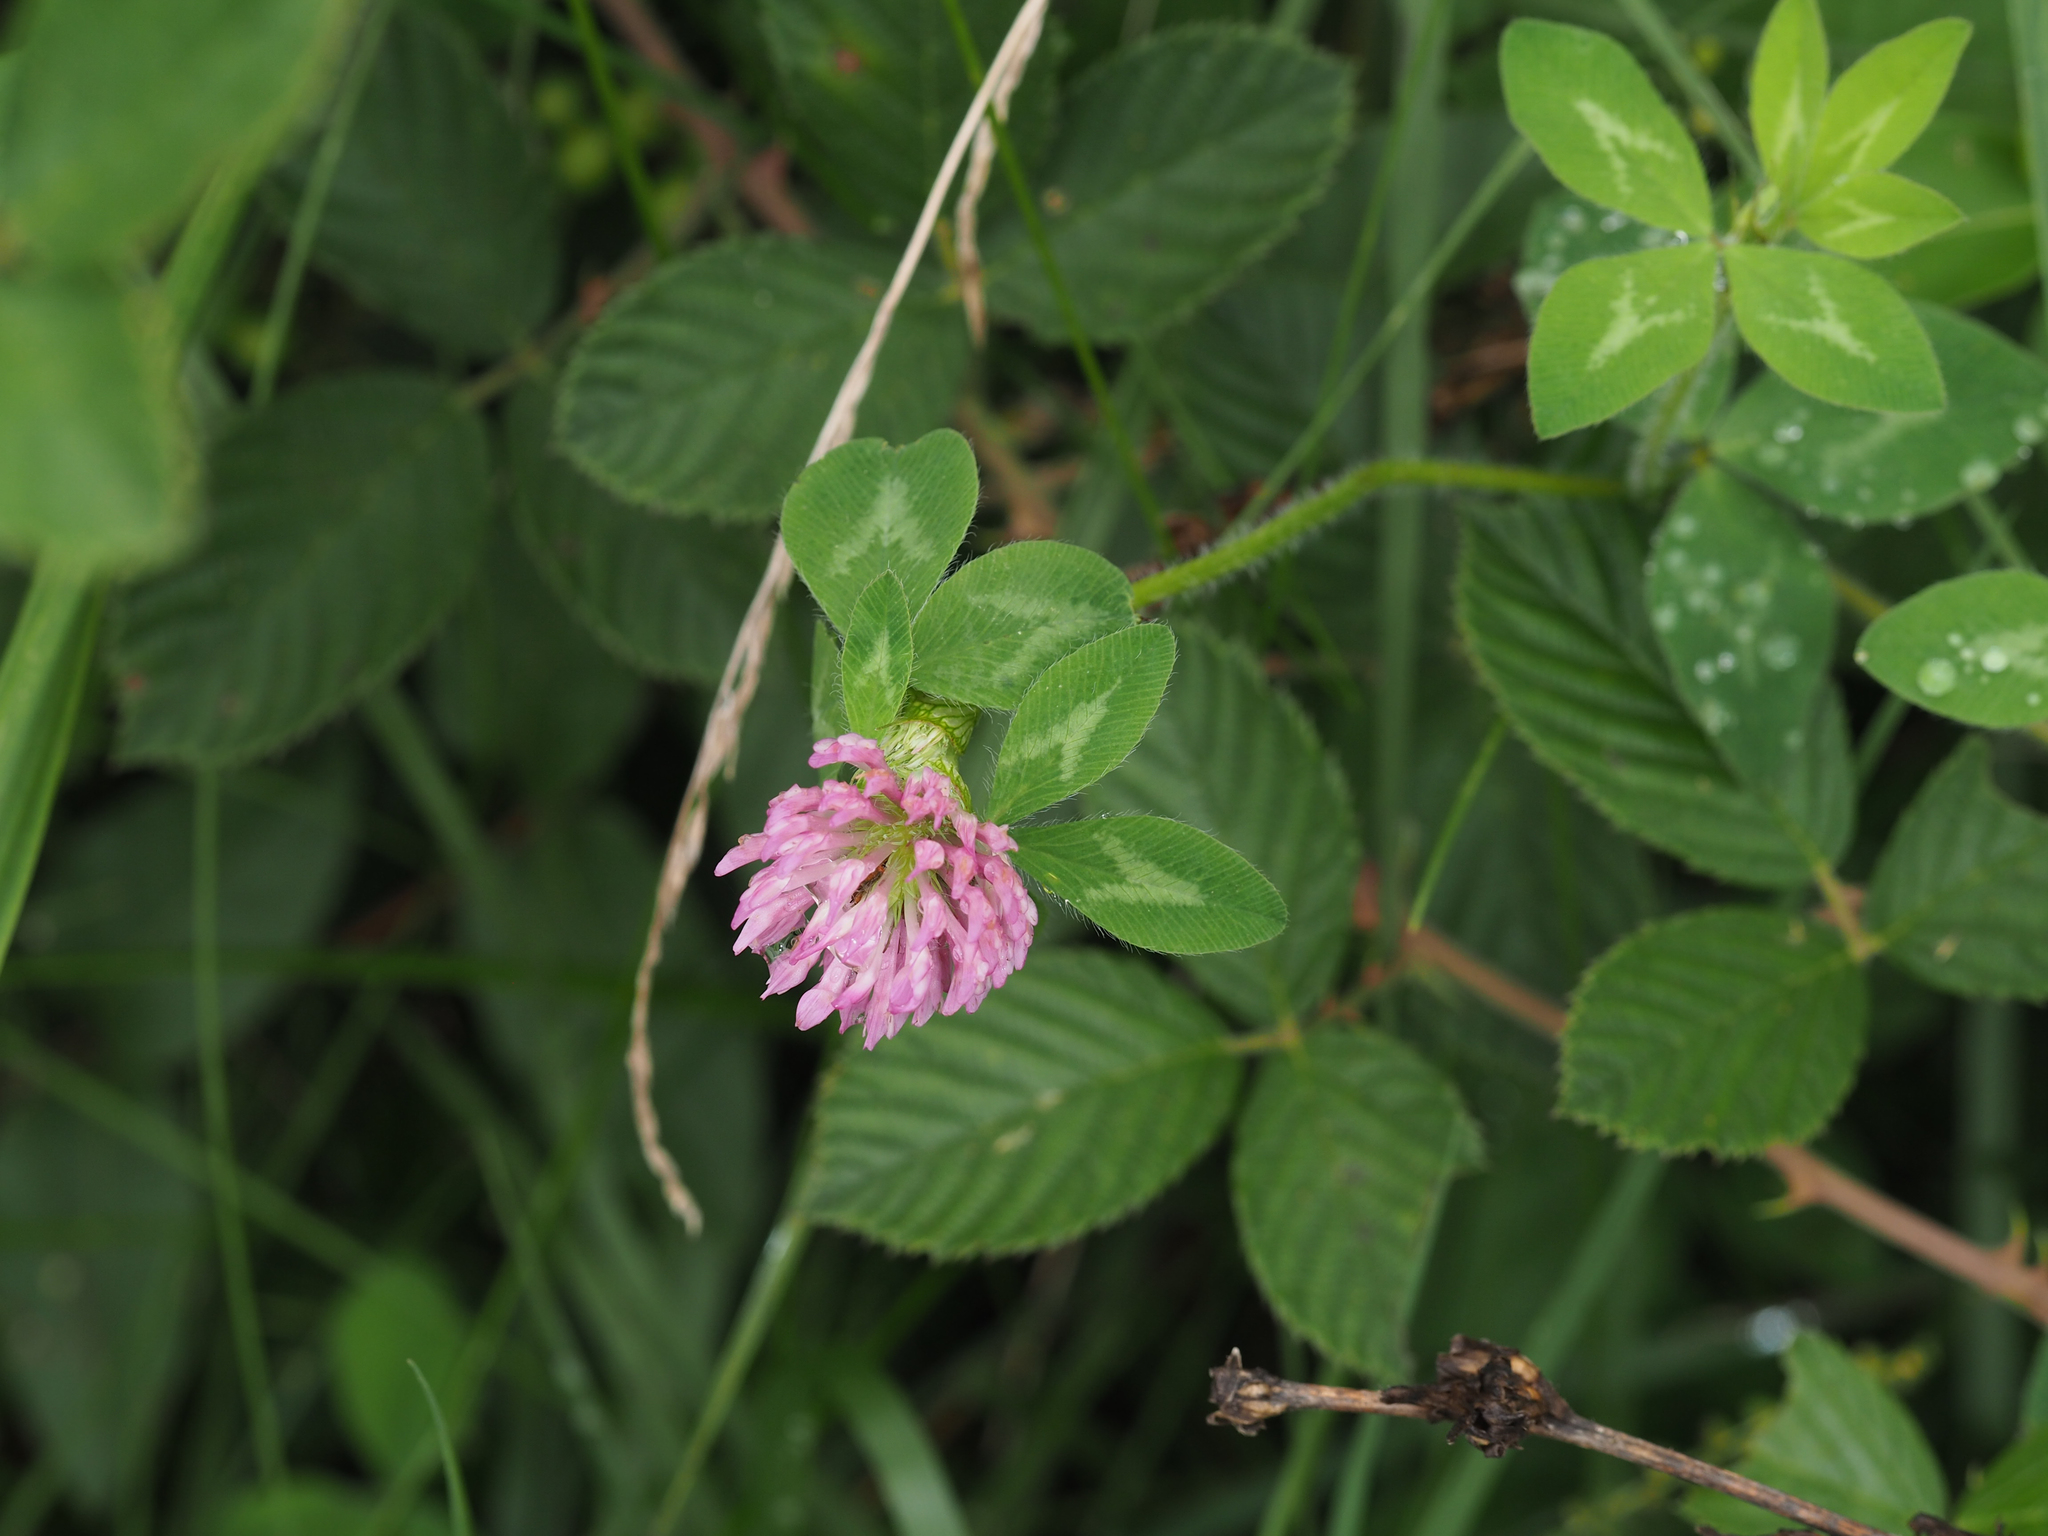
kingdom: Plantae
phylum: Tracheophyta
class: Magnoliopsida
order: Fabales
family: Fabaceae
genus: Trifolium
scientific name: Trifolium pratense
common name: Red clover
